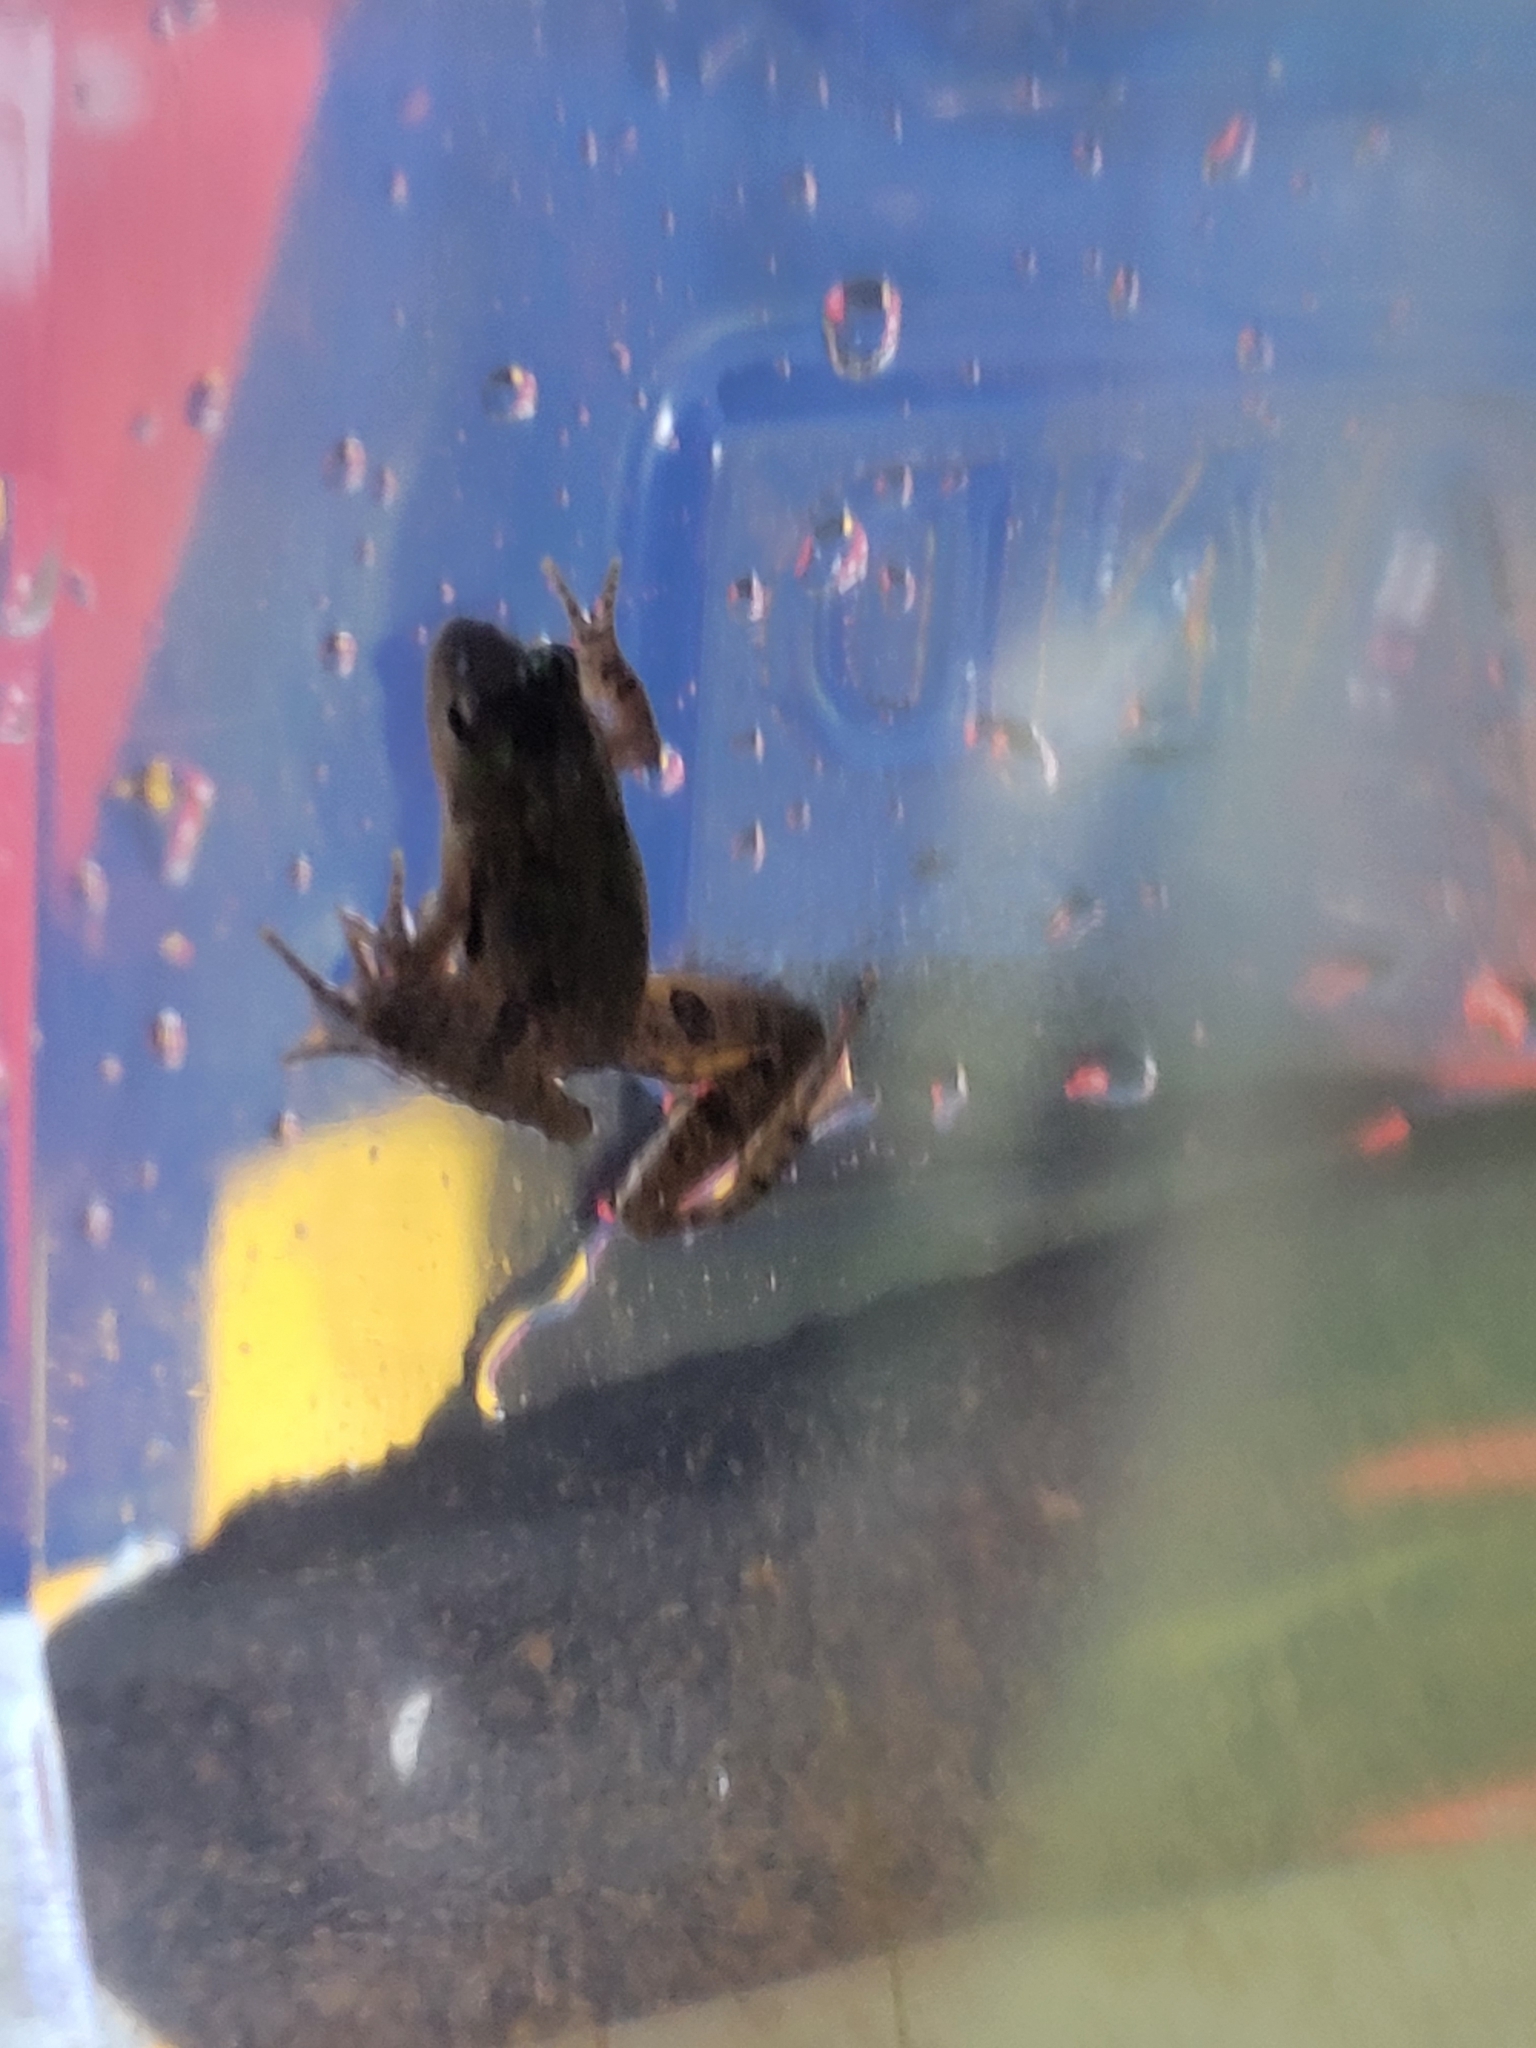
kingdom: Animalia
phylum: Chordata
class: Amphibia
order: Anura
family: Hylidae
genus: Acris
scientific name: Acris gryllus
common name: Southern cricket frog
